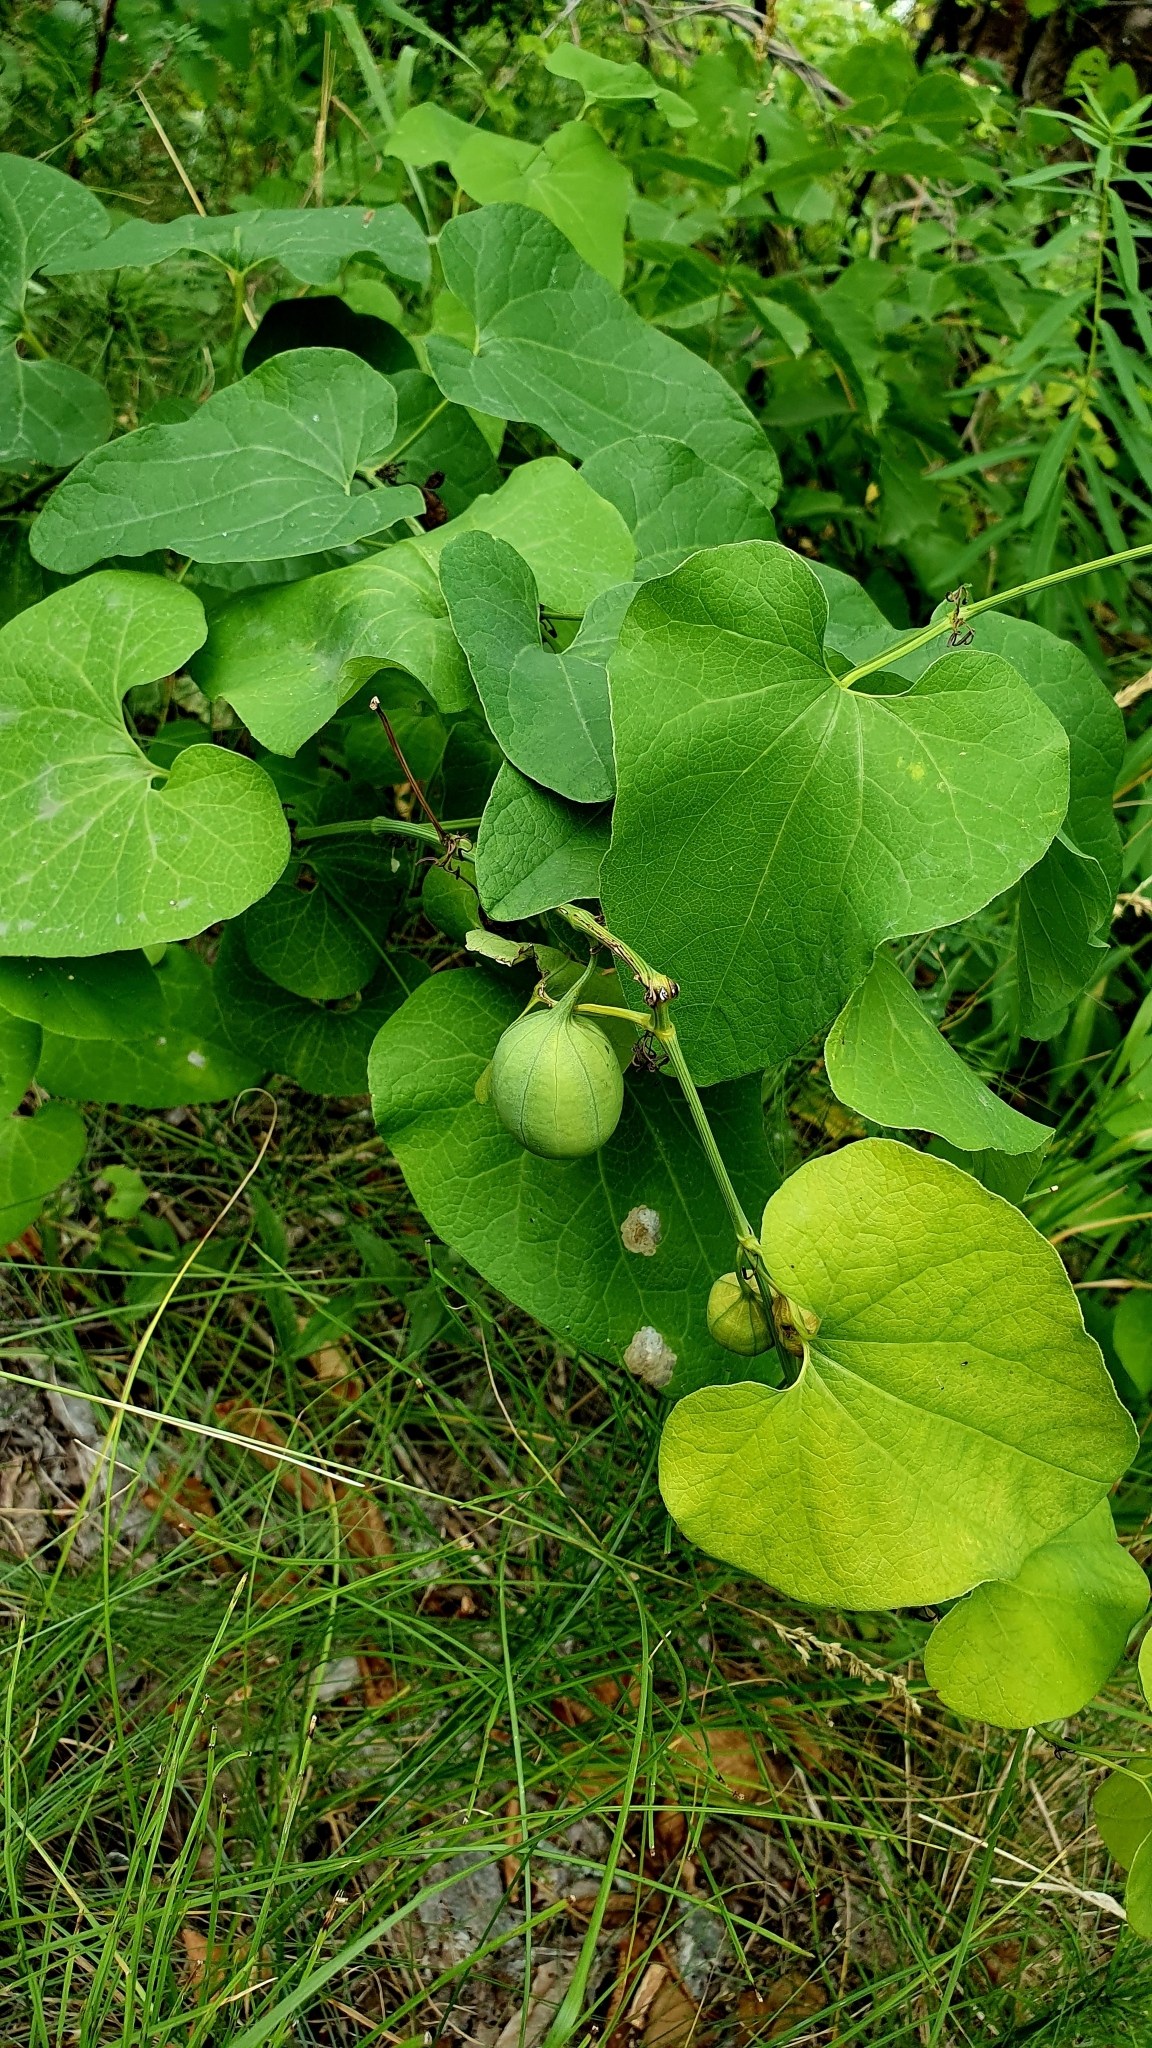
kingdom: Plantae
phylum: Tracheophyta
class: Magnoliopsida
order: Piperales
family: Aristolochiaceae
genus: Aristolochia
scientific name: Aristolochia clematitis
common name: Birthwort
